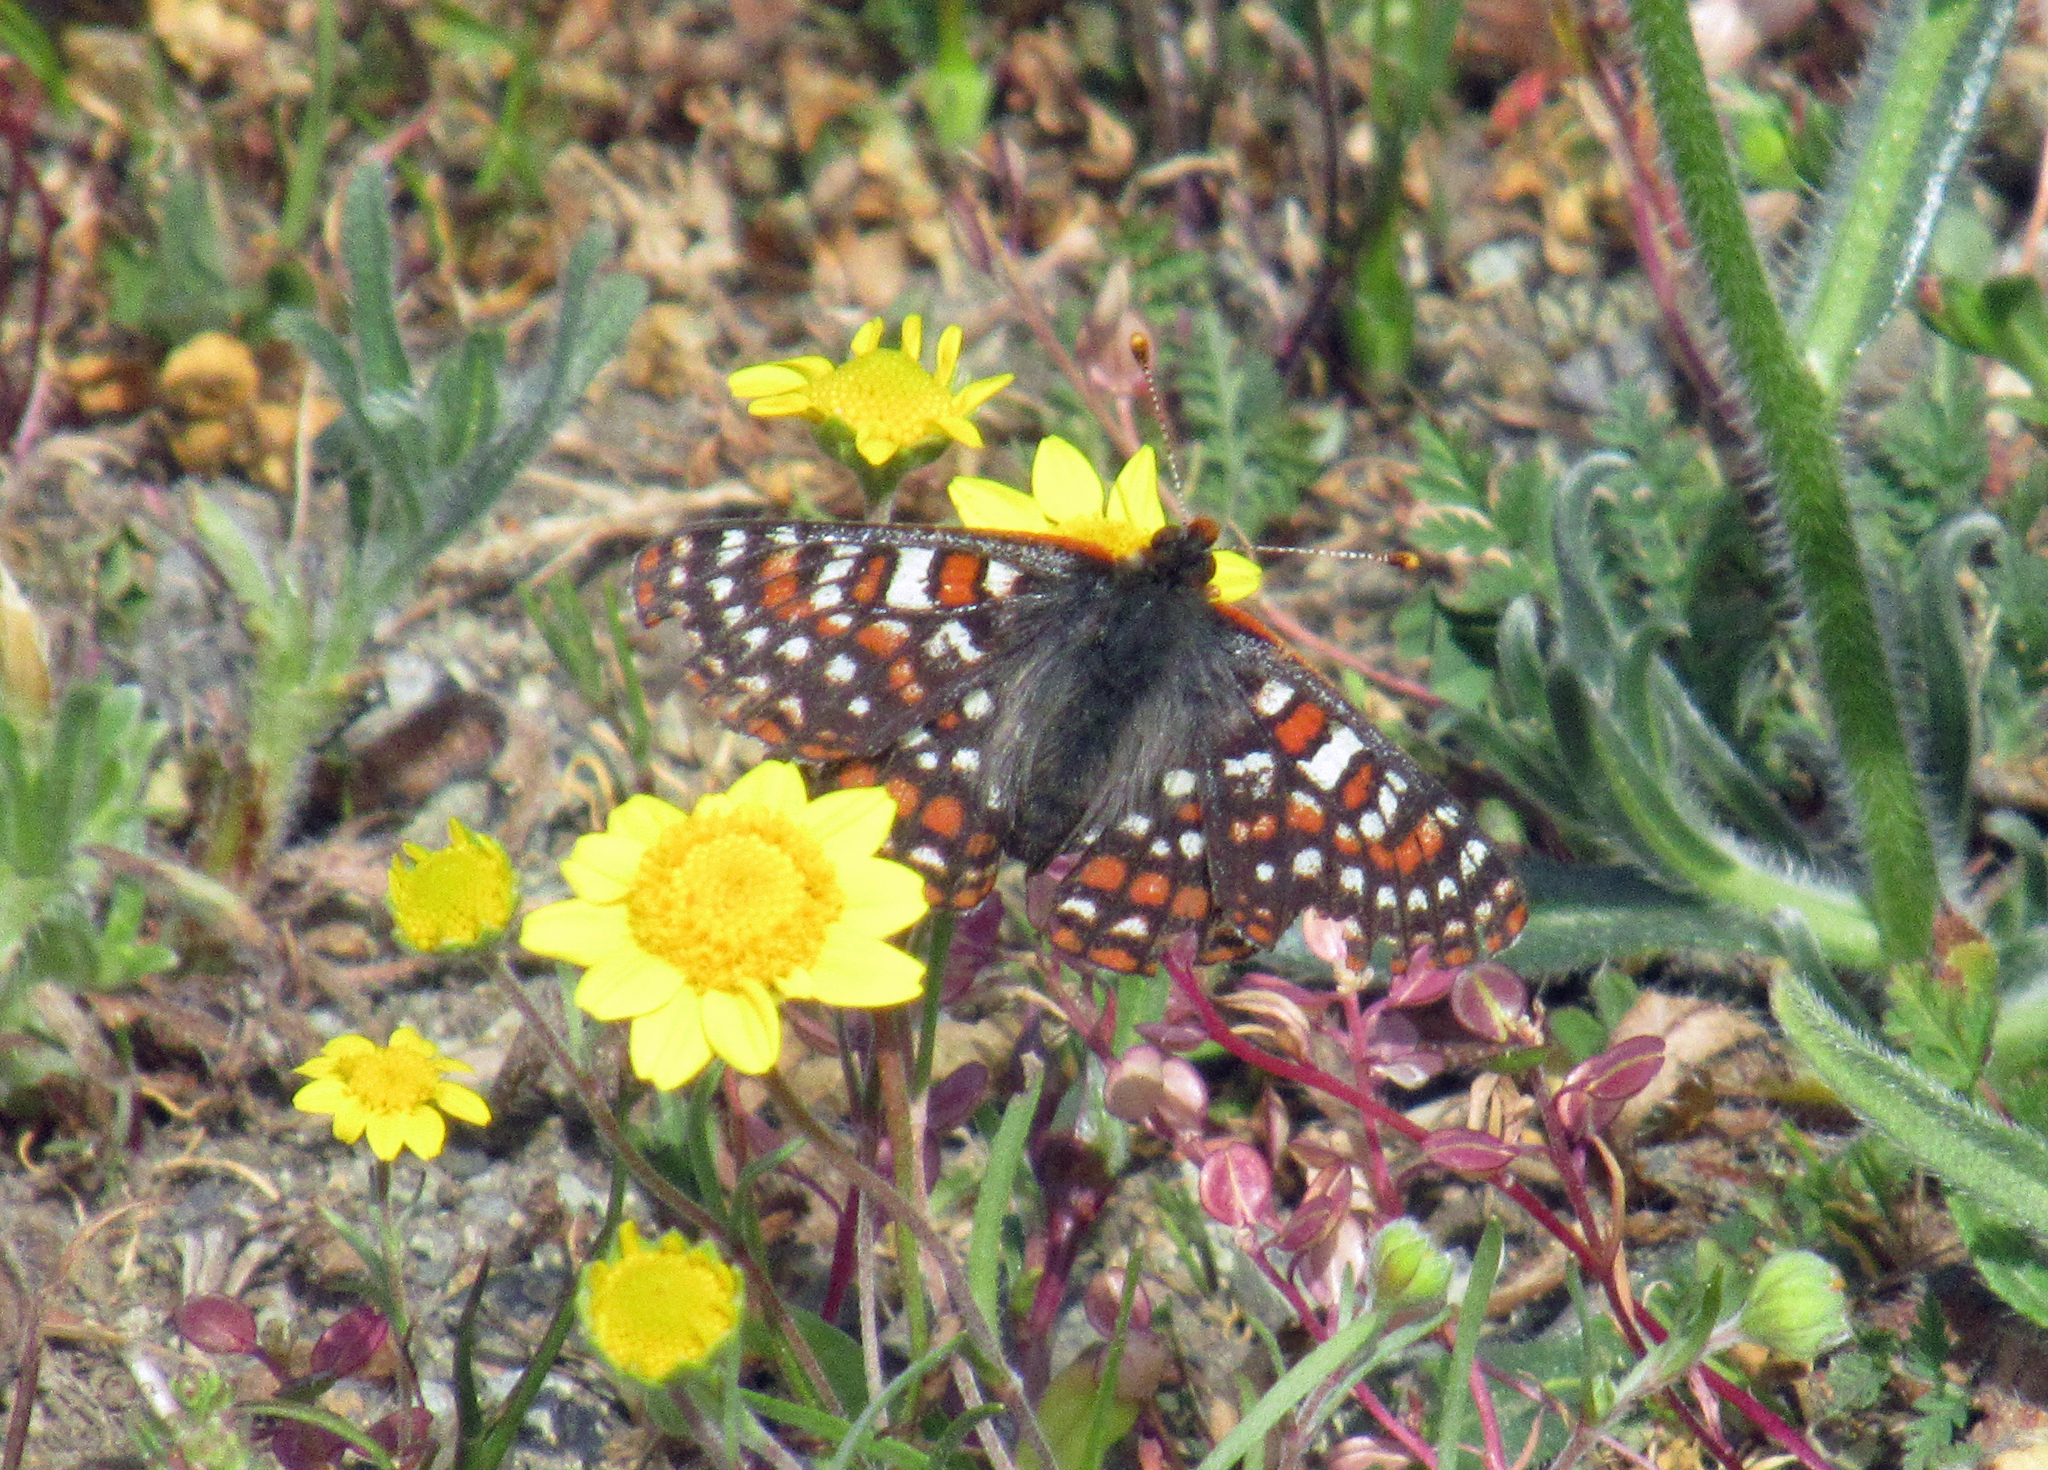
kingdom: Animalia
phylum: Arthropoda
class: Insecta
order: Lepidoptera
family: Nymphalidae
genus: Occidryas
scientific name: Occidryas editha
